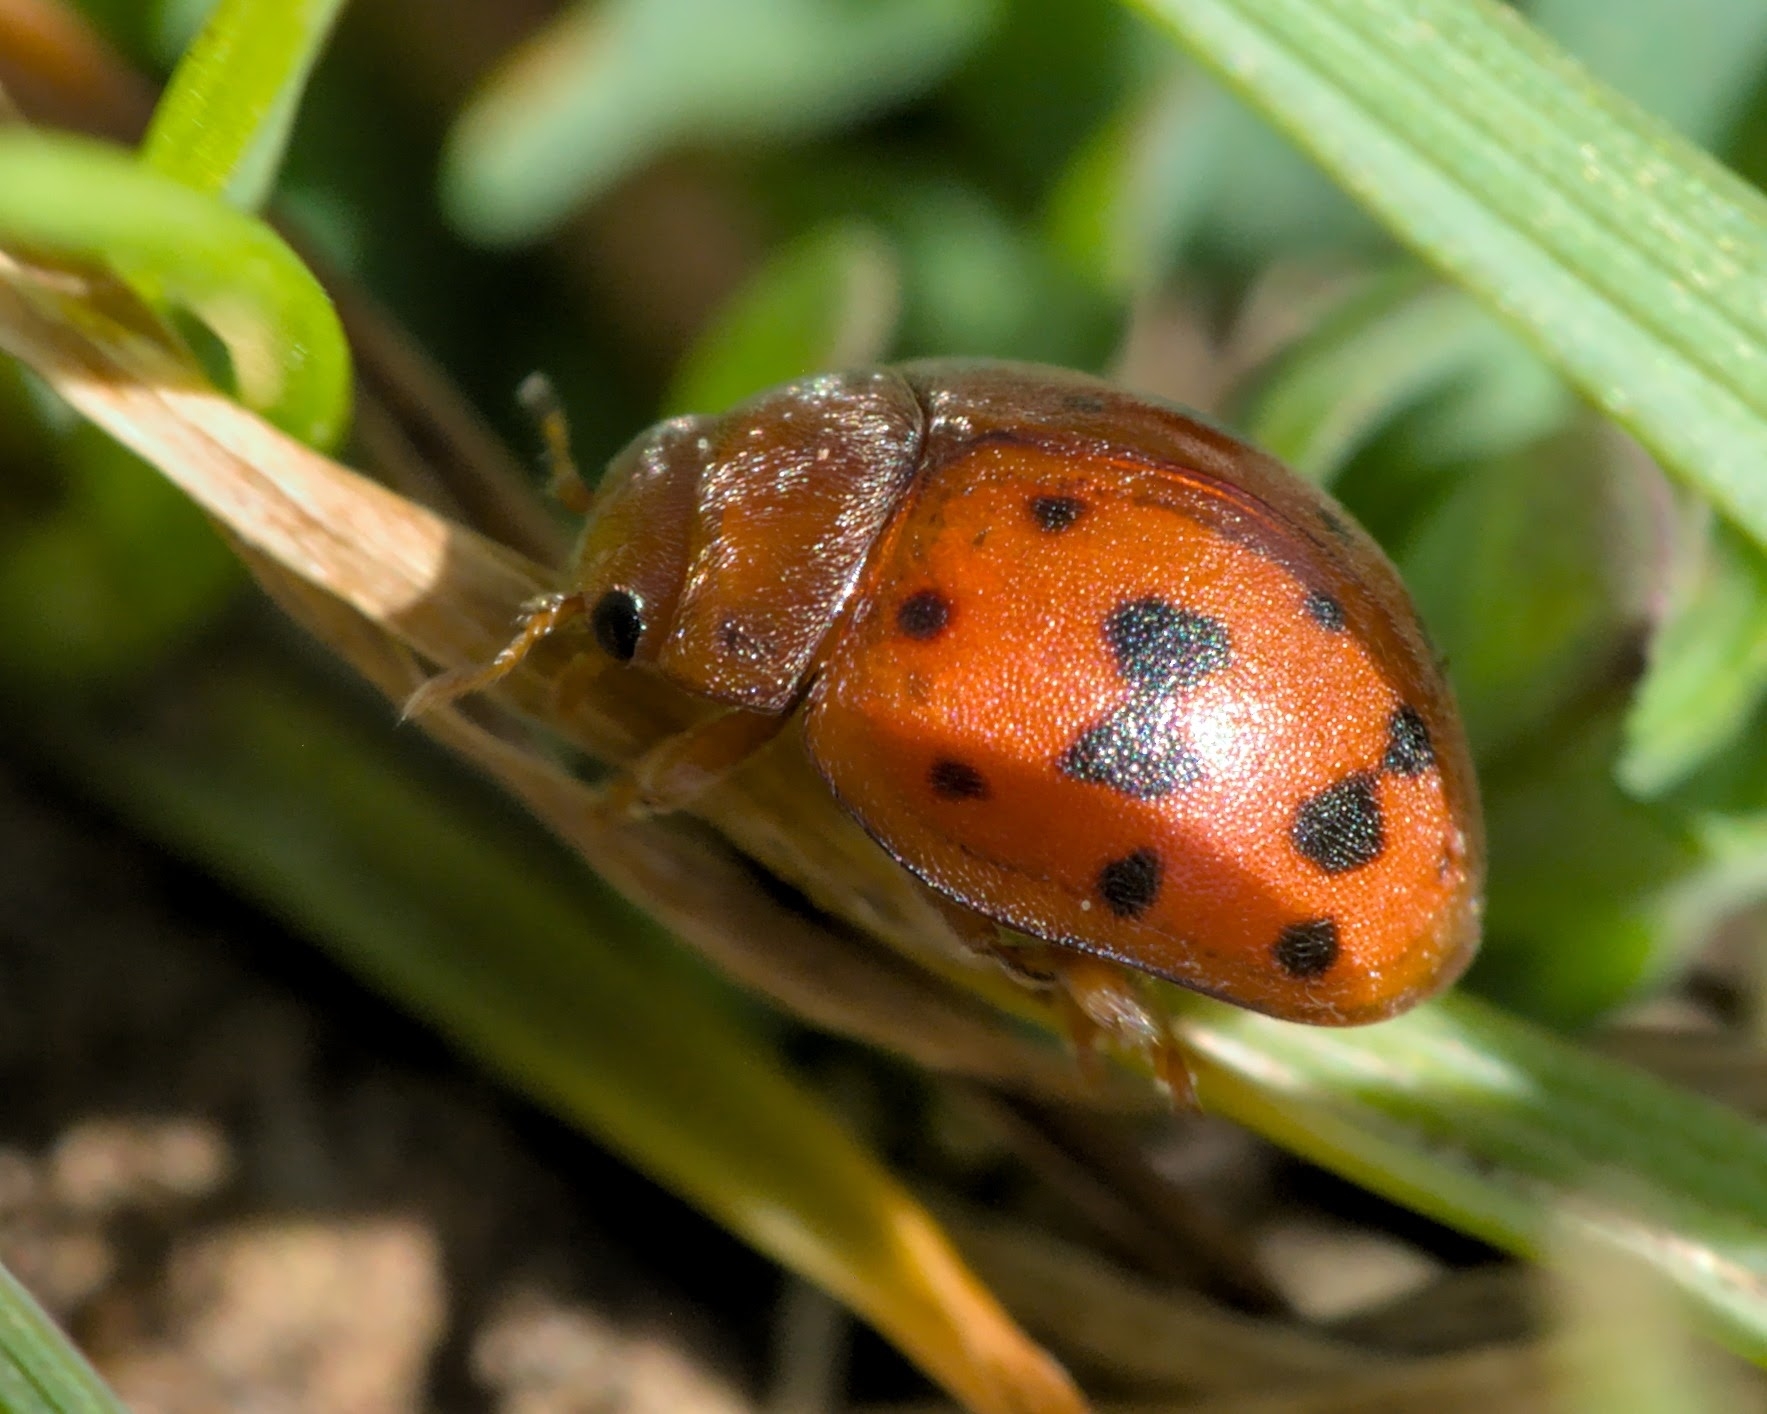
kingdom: Animalia
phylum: Arthropoda
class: Insecta
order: Coleoptera
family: Coccinellidae
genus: Subcoccinella
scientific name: Subcoccinella vigintiquatuorpunctata
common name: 24-spot ladybird
